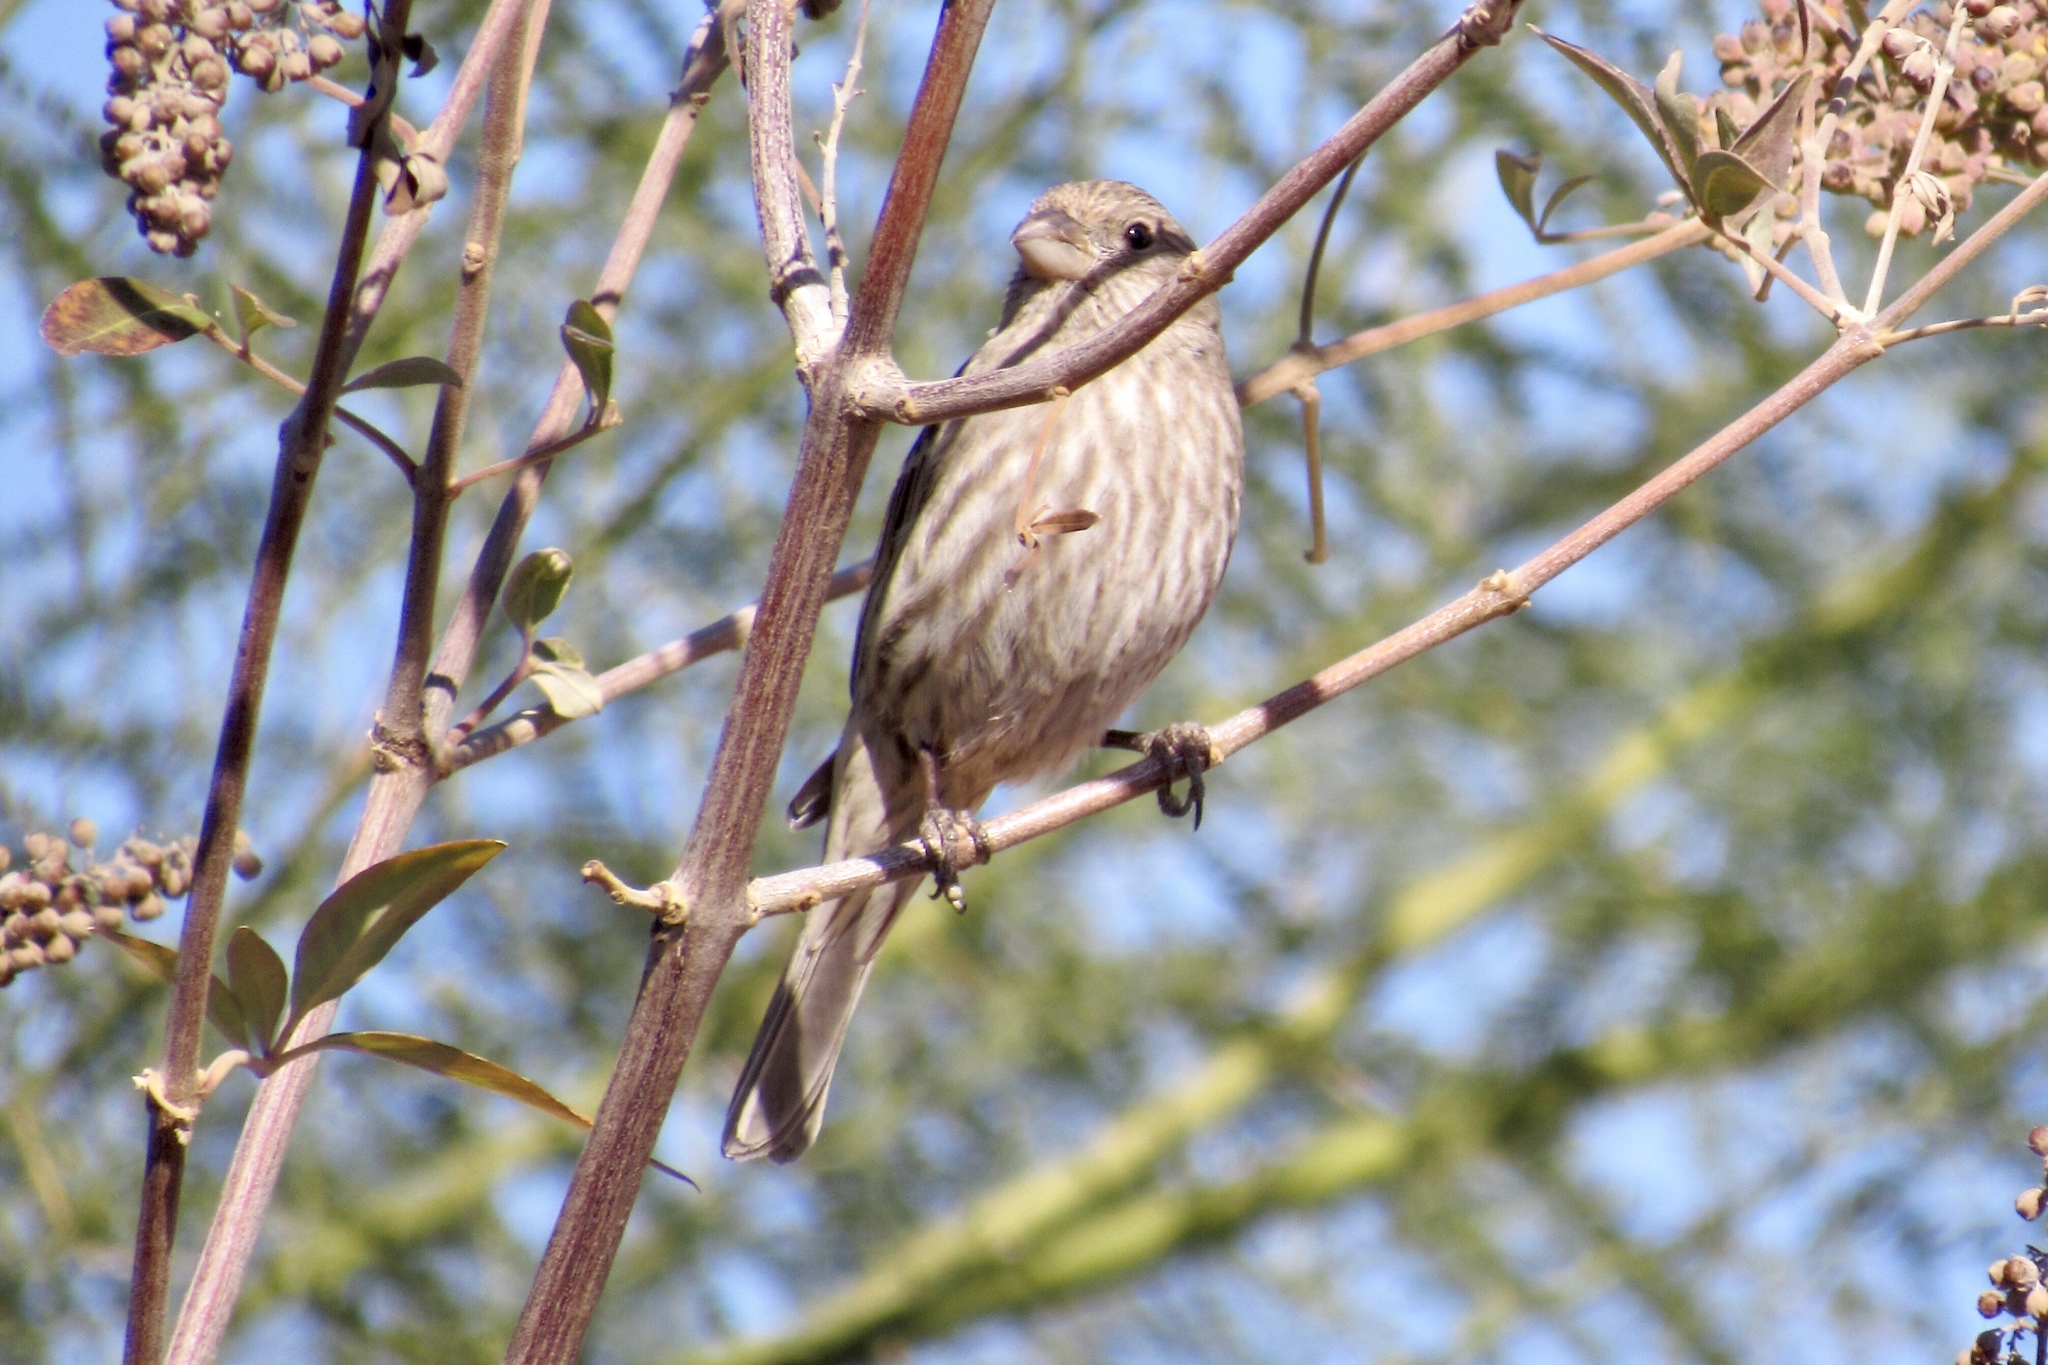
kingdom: Animalia
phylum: Chordata
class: Aves
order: Passeriformes
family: Fringillidae
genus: Haemorhous
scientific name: Haemorhous mexicanus
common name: House finch
